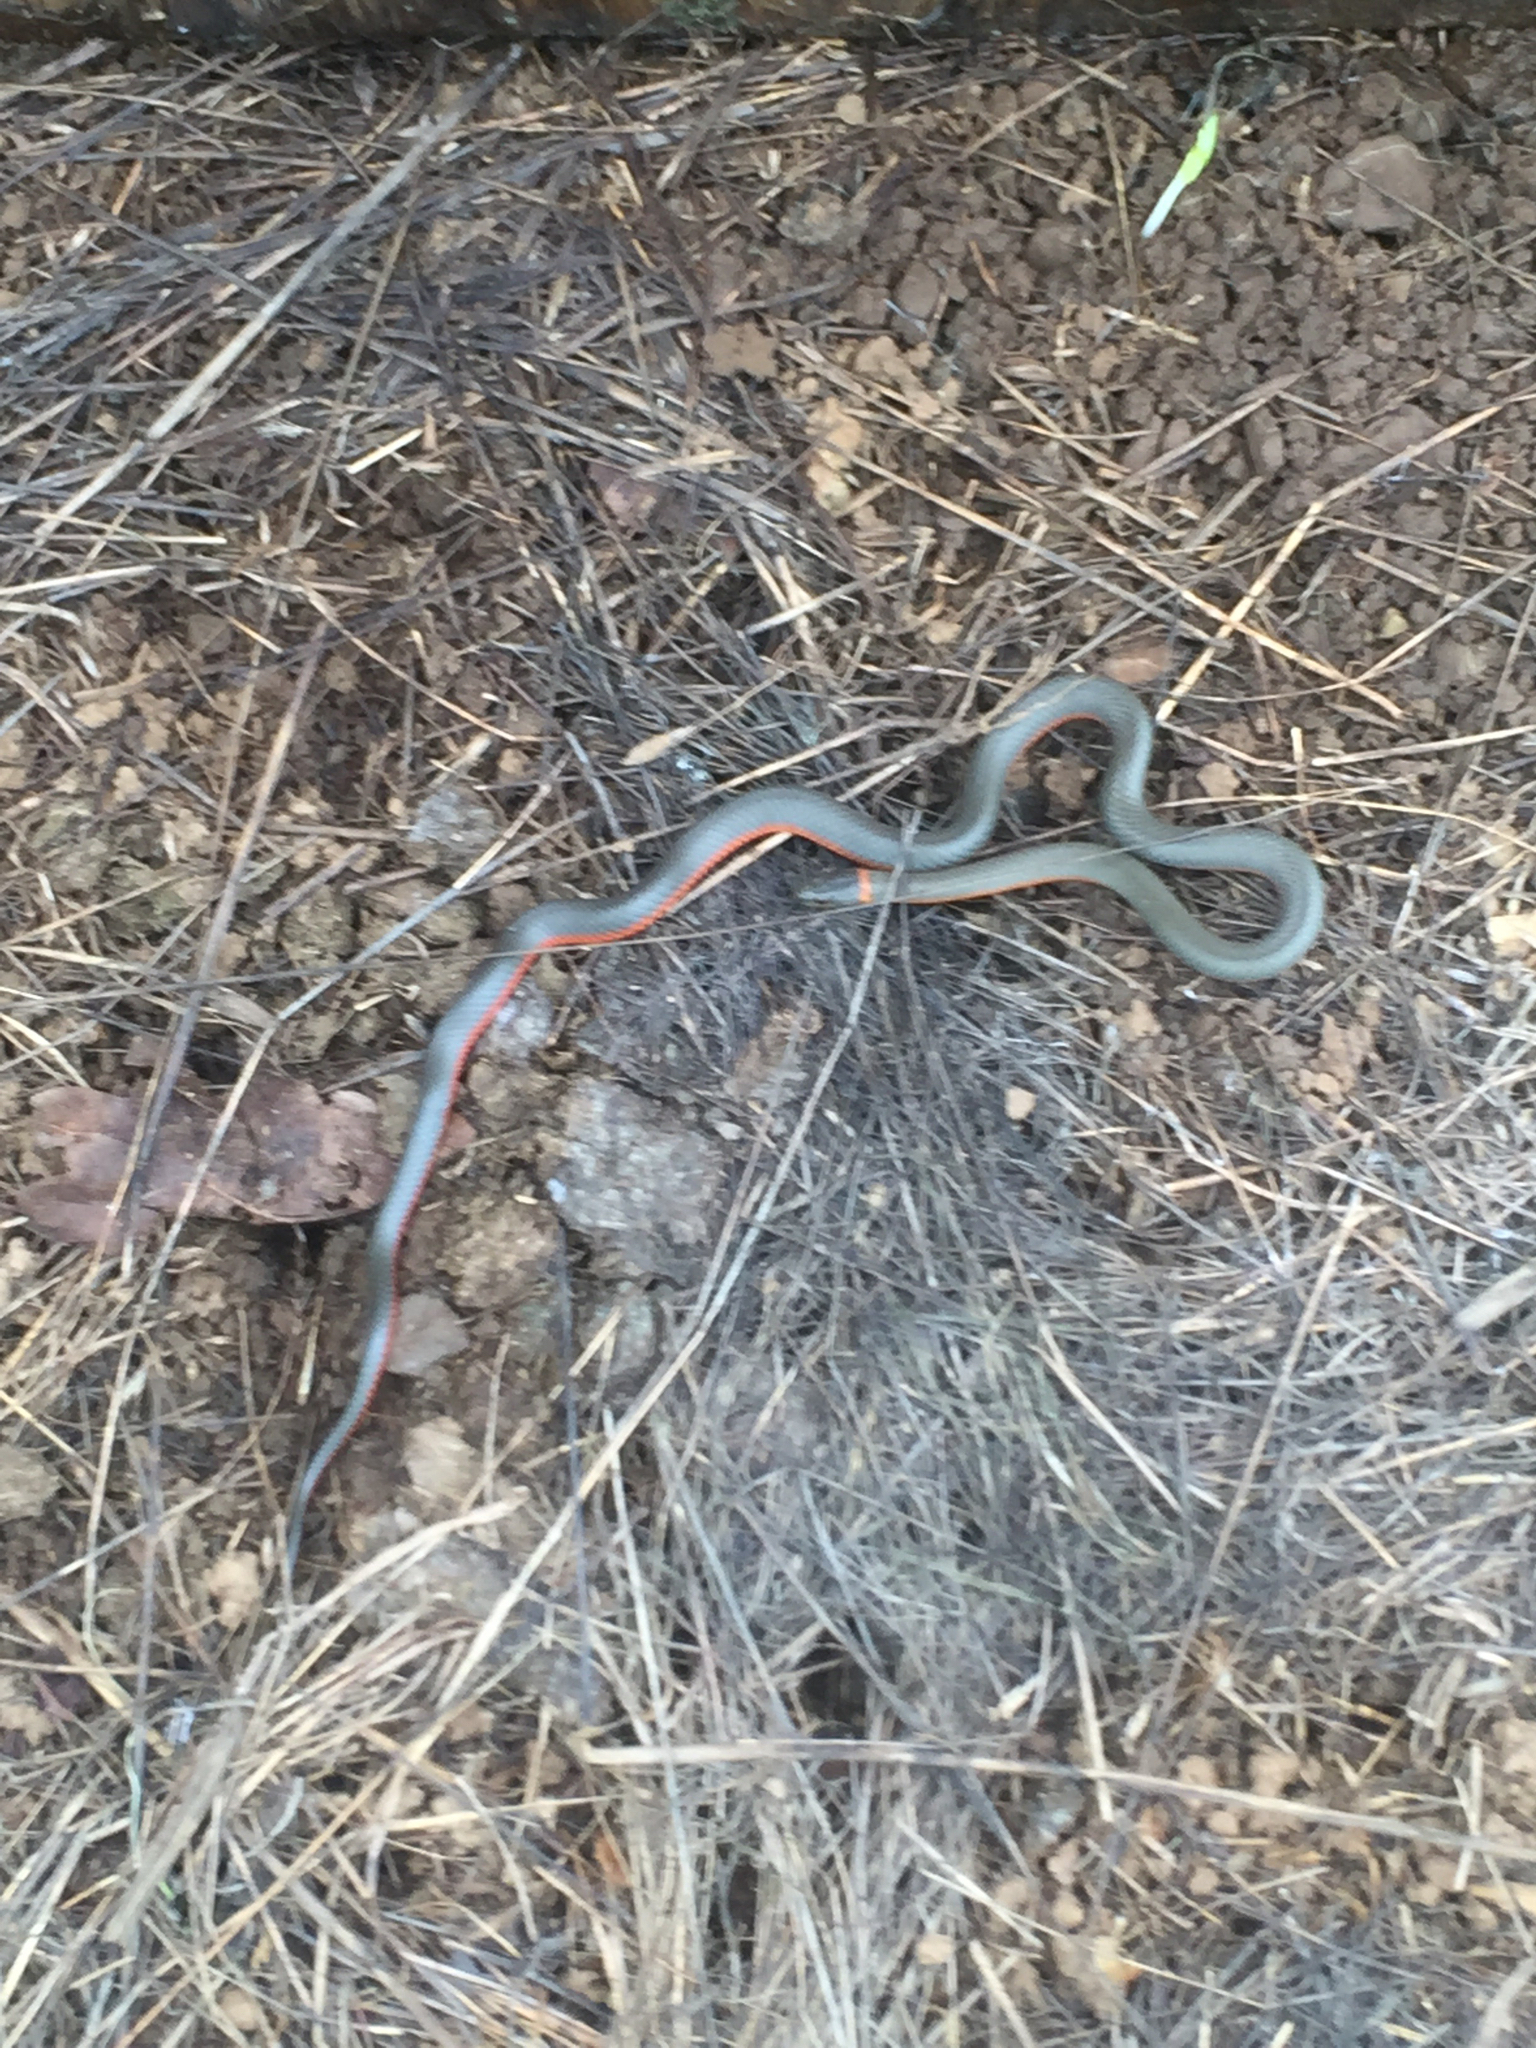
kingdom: Animalia
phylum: Chordata
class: Squamata
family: Colubridae
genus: Diadophis
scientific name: Diadophis punctatus
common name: Ringneck snake
